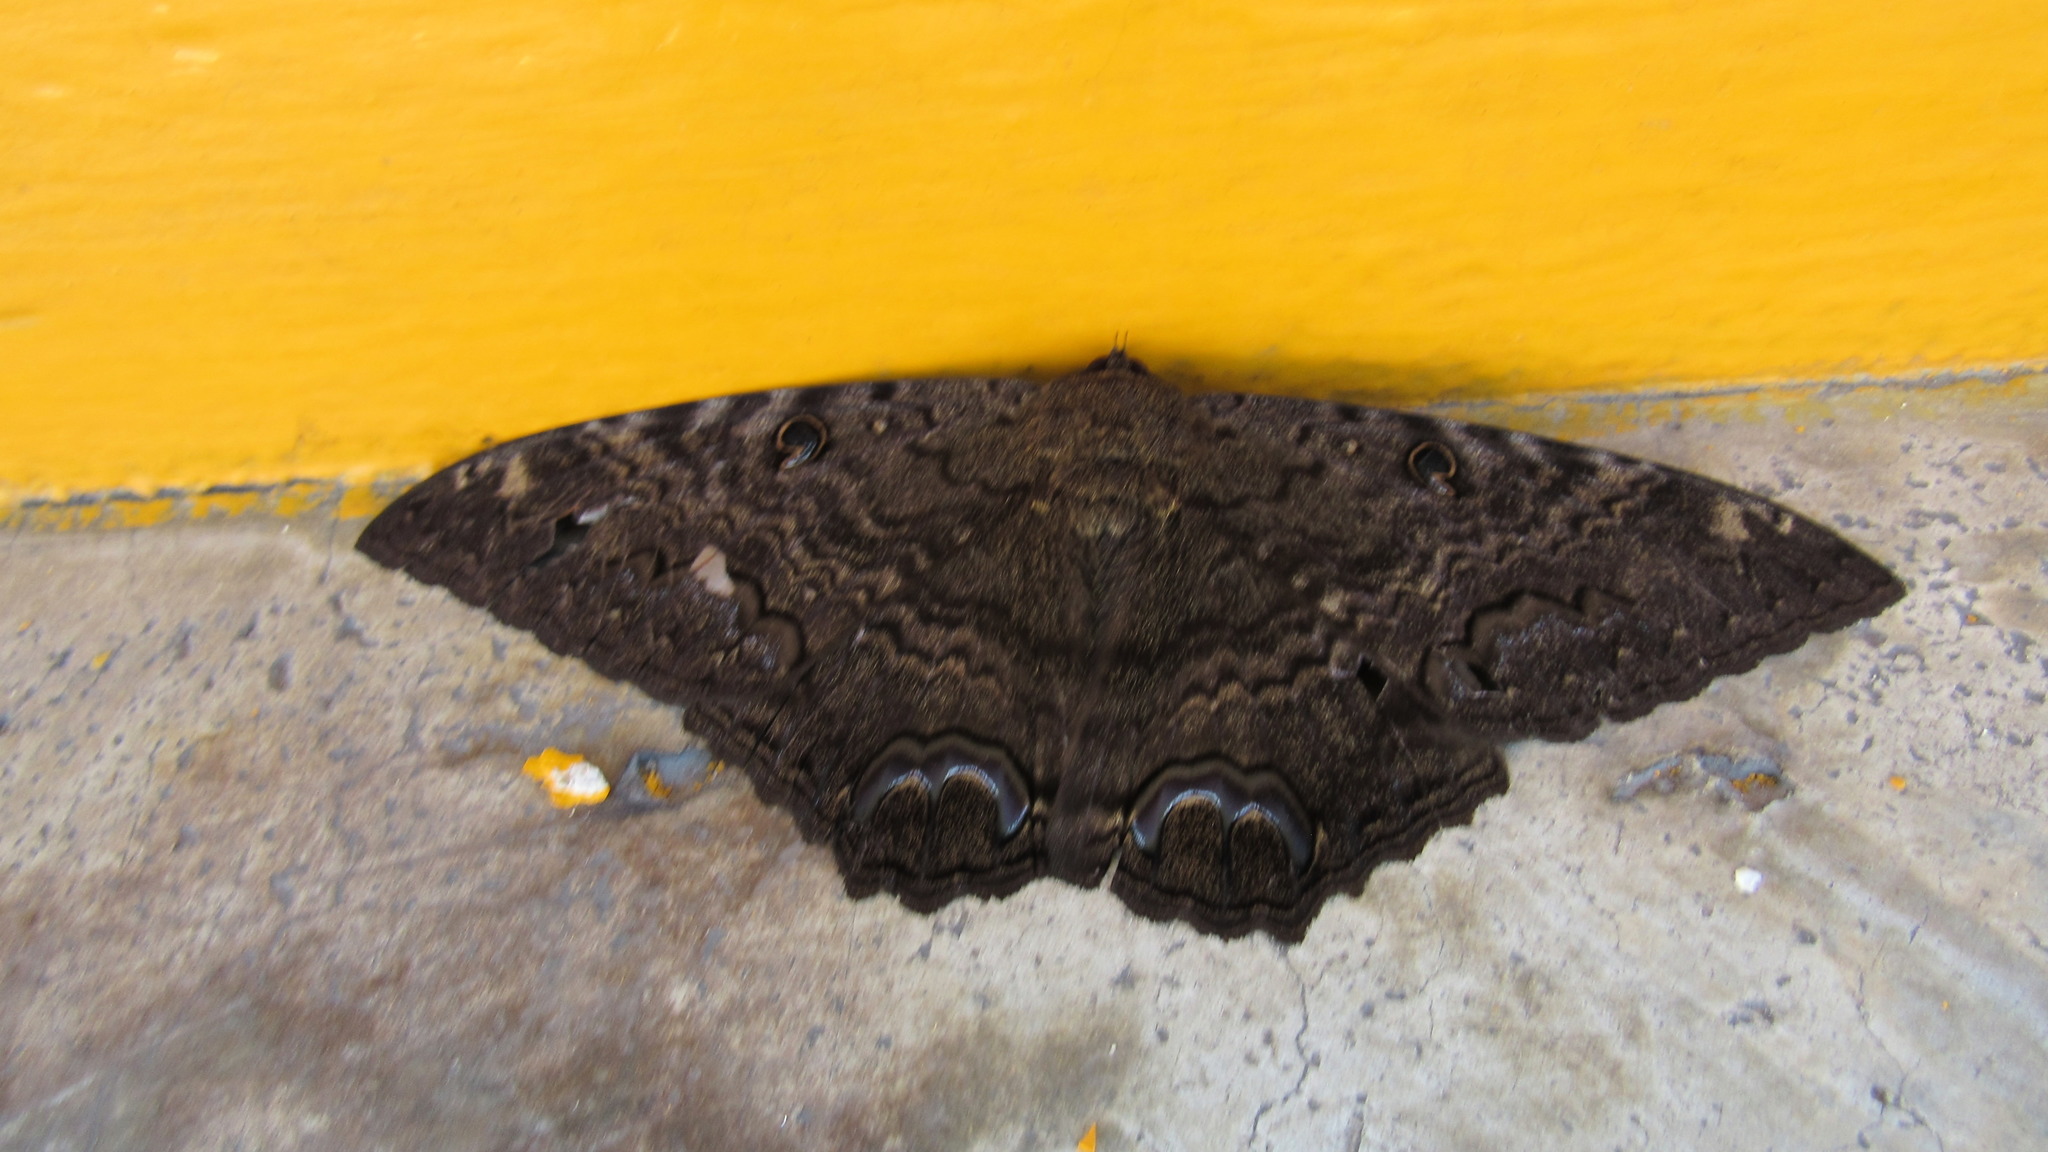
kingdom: Animalia
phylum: Arthropoda
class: Insecta
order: Lepidoptera
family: Erebidae
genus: Ascalapha
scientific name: Ascalapha odorata
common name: Black witch
